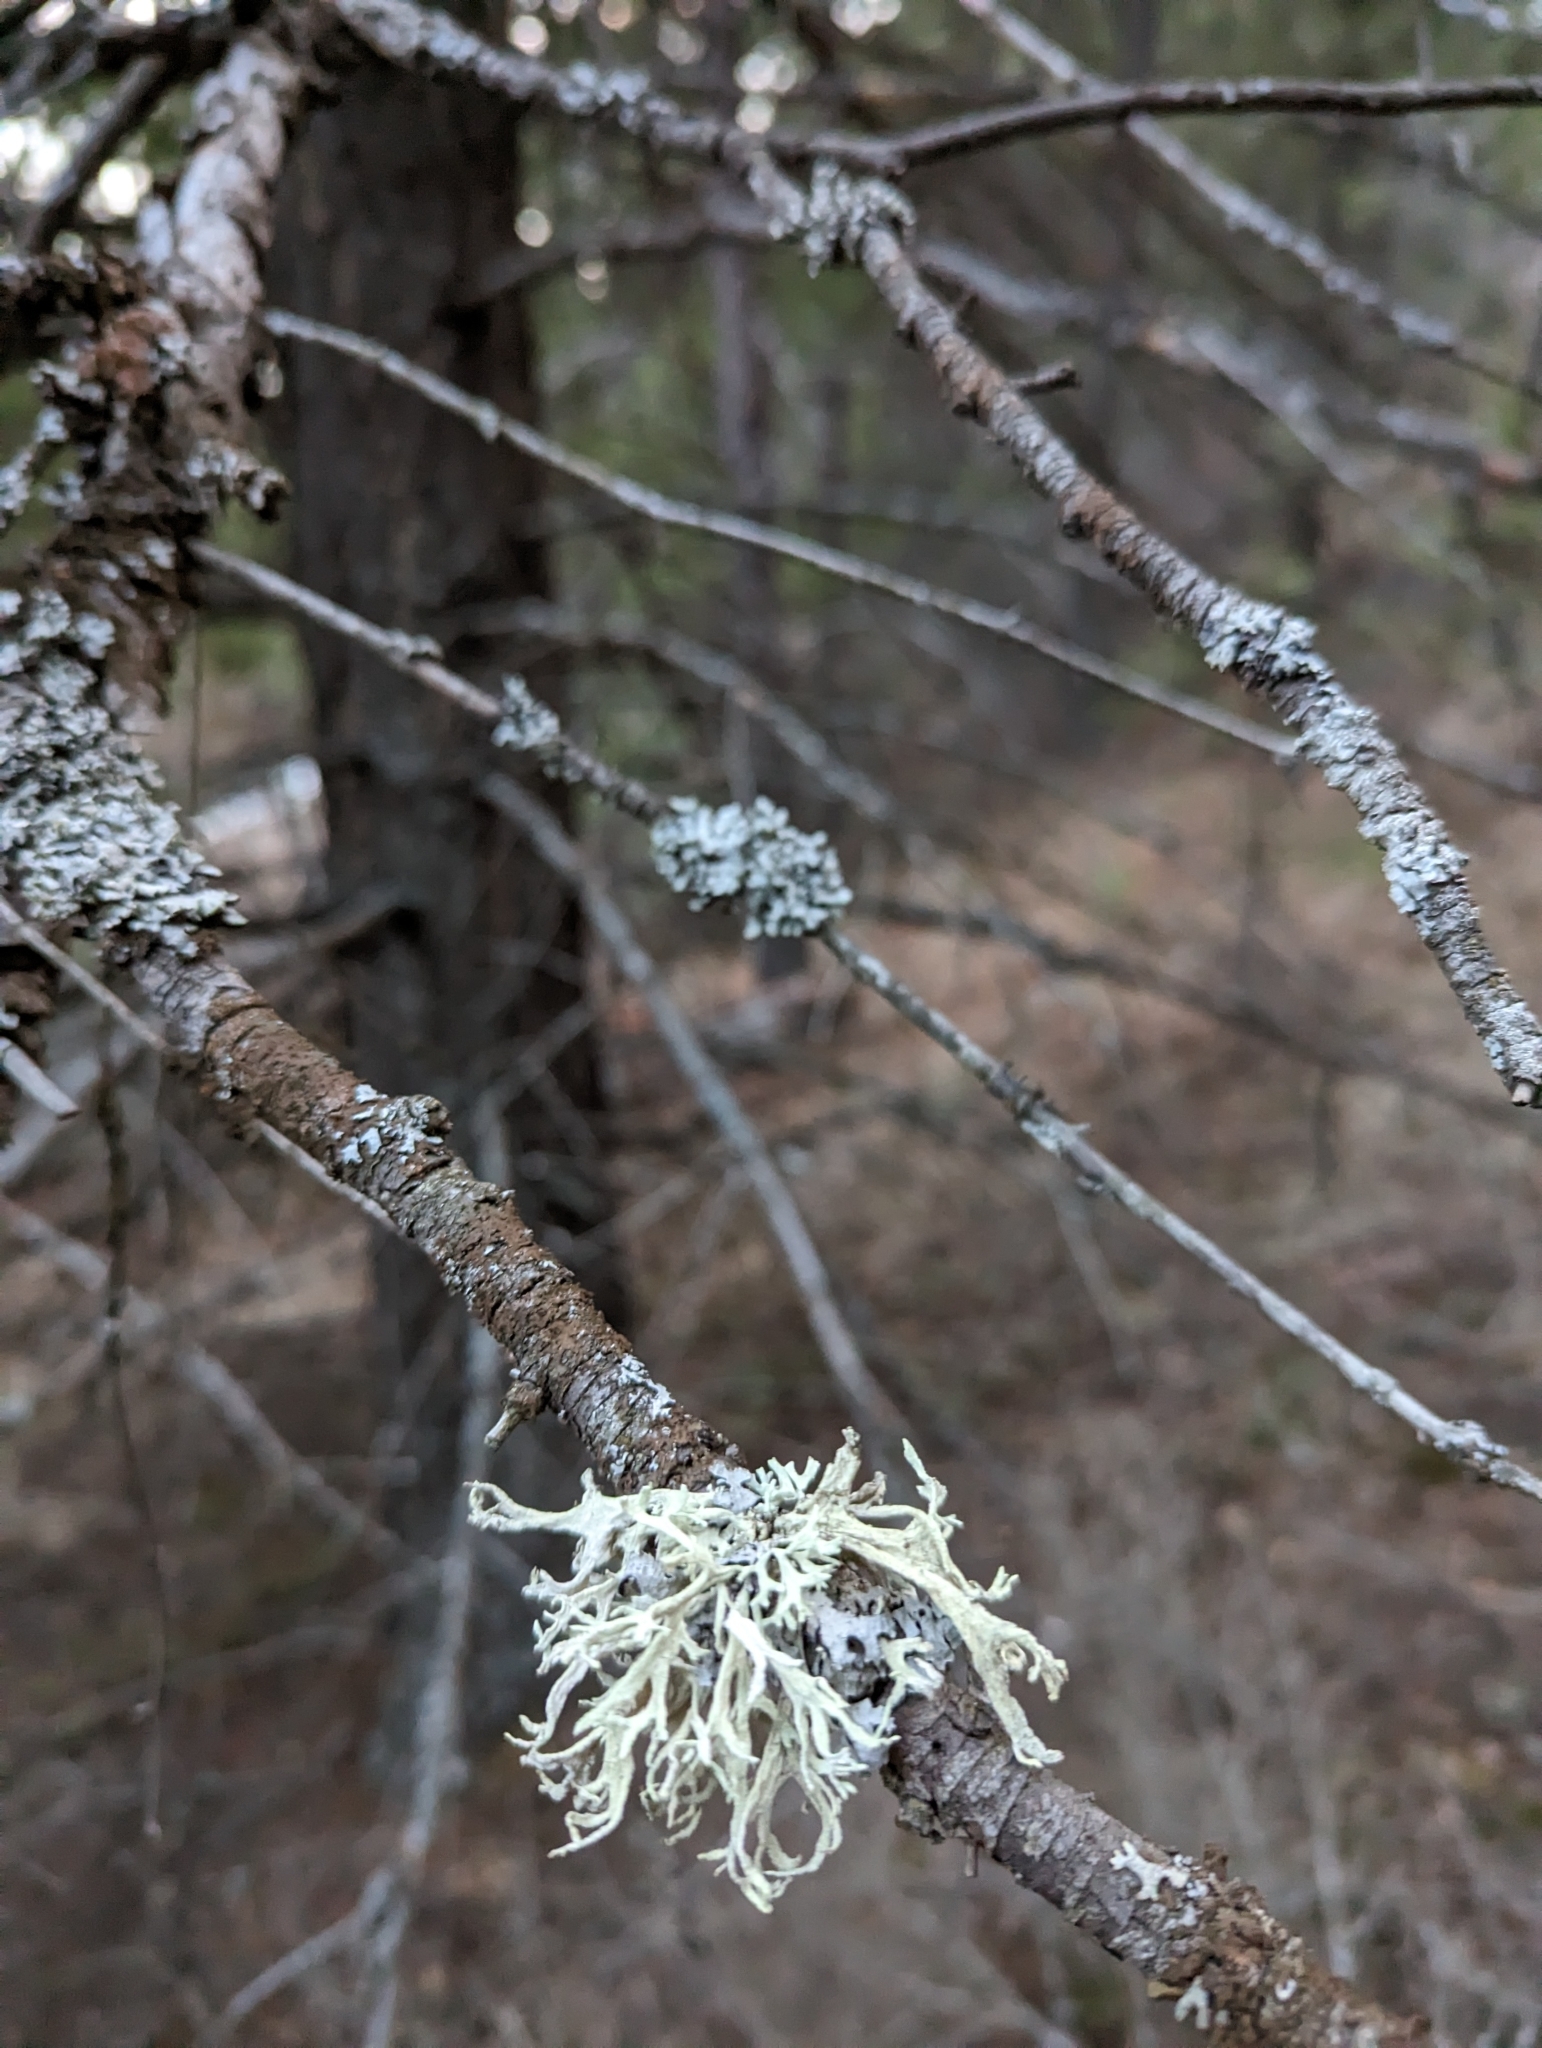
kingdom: Fungi
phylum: Ascomycota
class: Lecanoromycetes
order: Lecanorales
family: Parmeliaceae
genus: Evernia
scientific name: Evernia prunastri
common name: Oak moss
